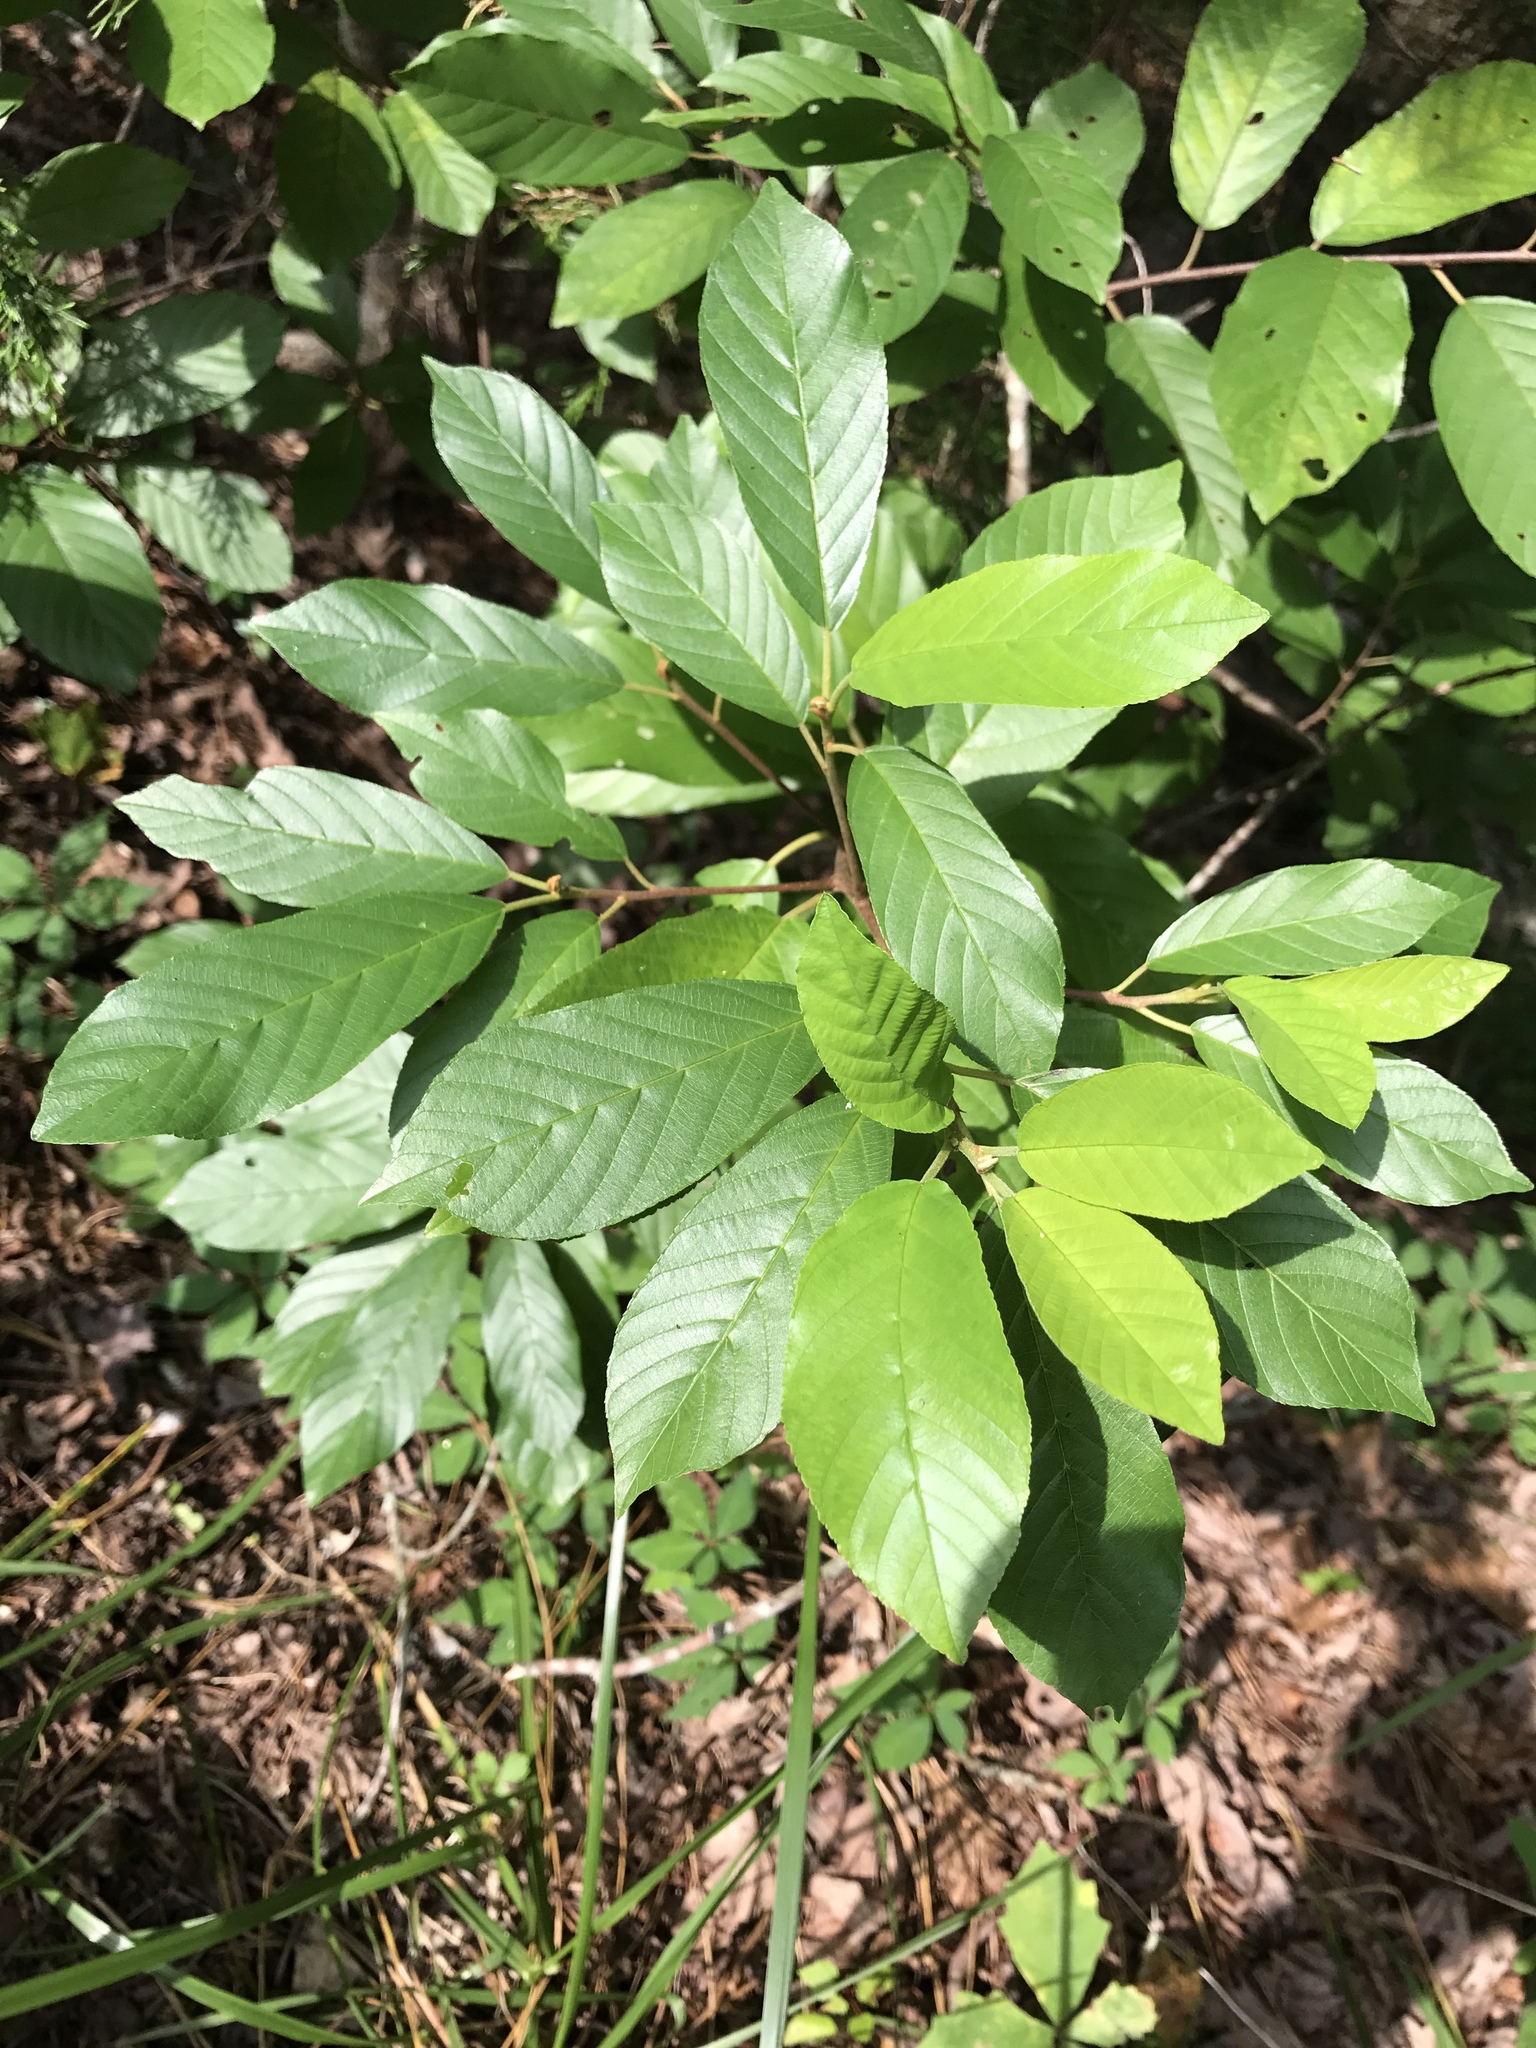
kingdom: Plantae
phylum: Tracheophyta
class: Magnoliopsida
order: Rosales
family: Rhamnaceae
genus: Frangula
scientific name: Frangula caroliniana
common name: Carolina buckthorn
